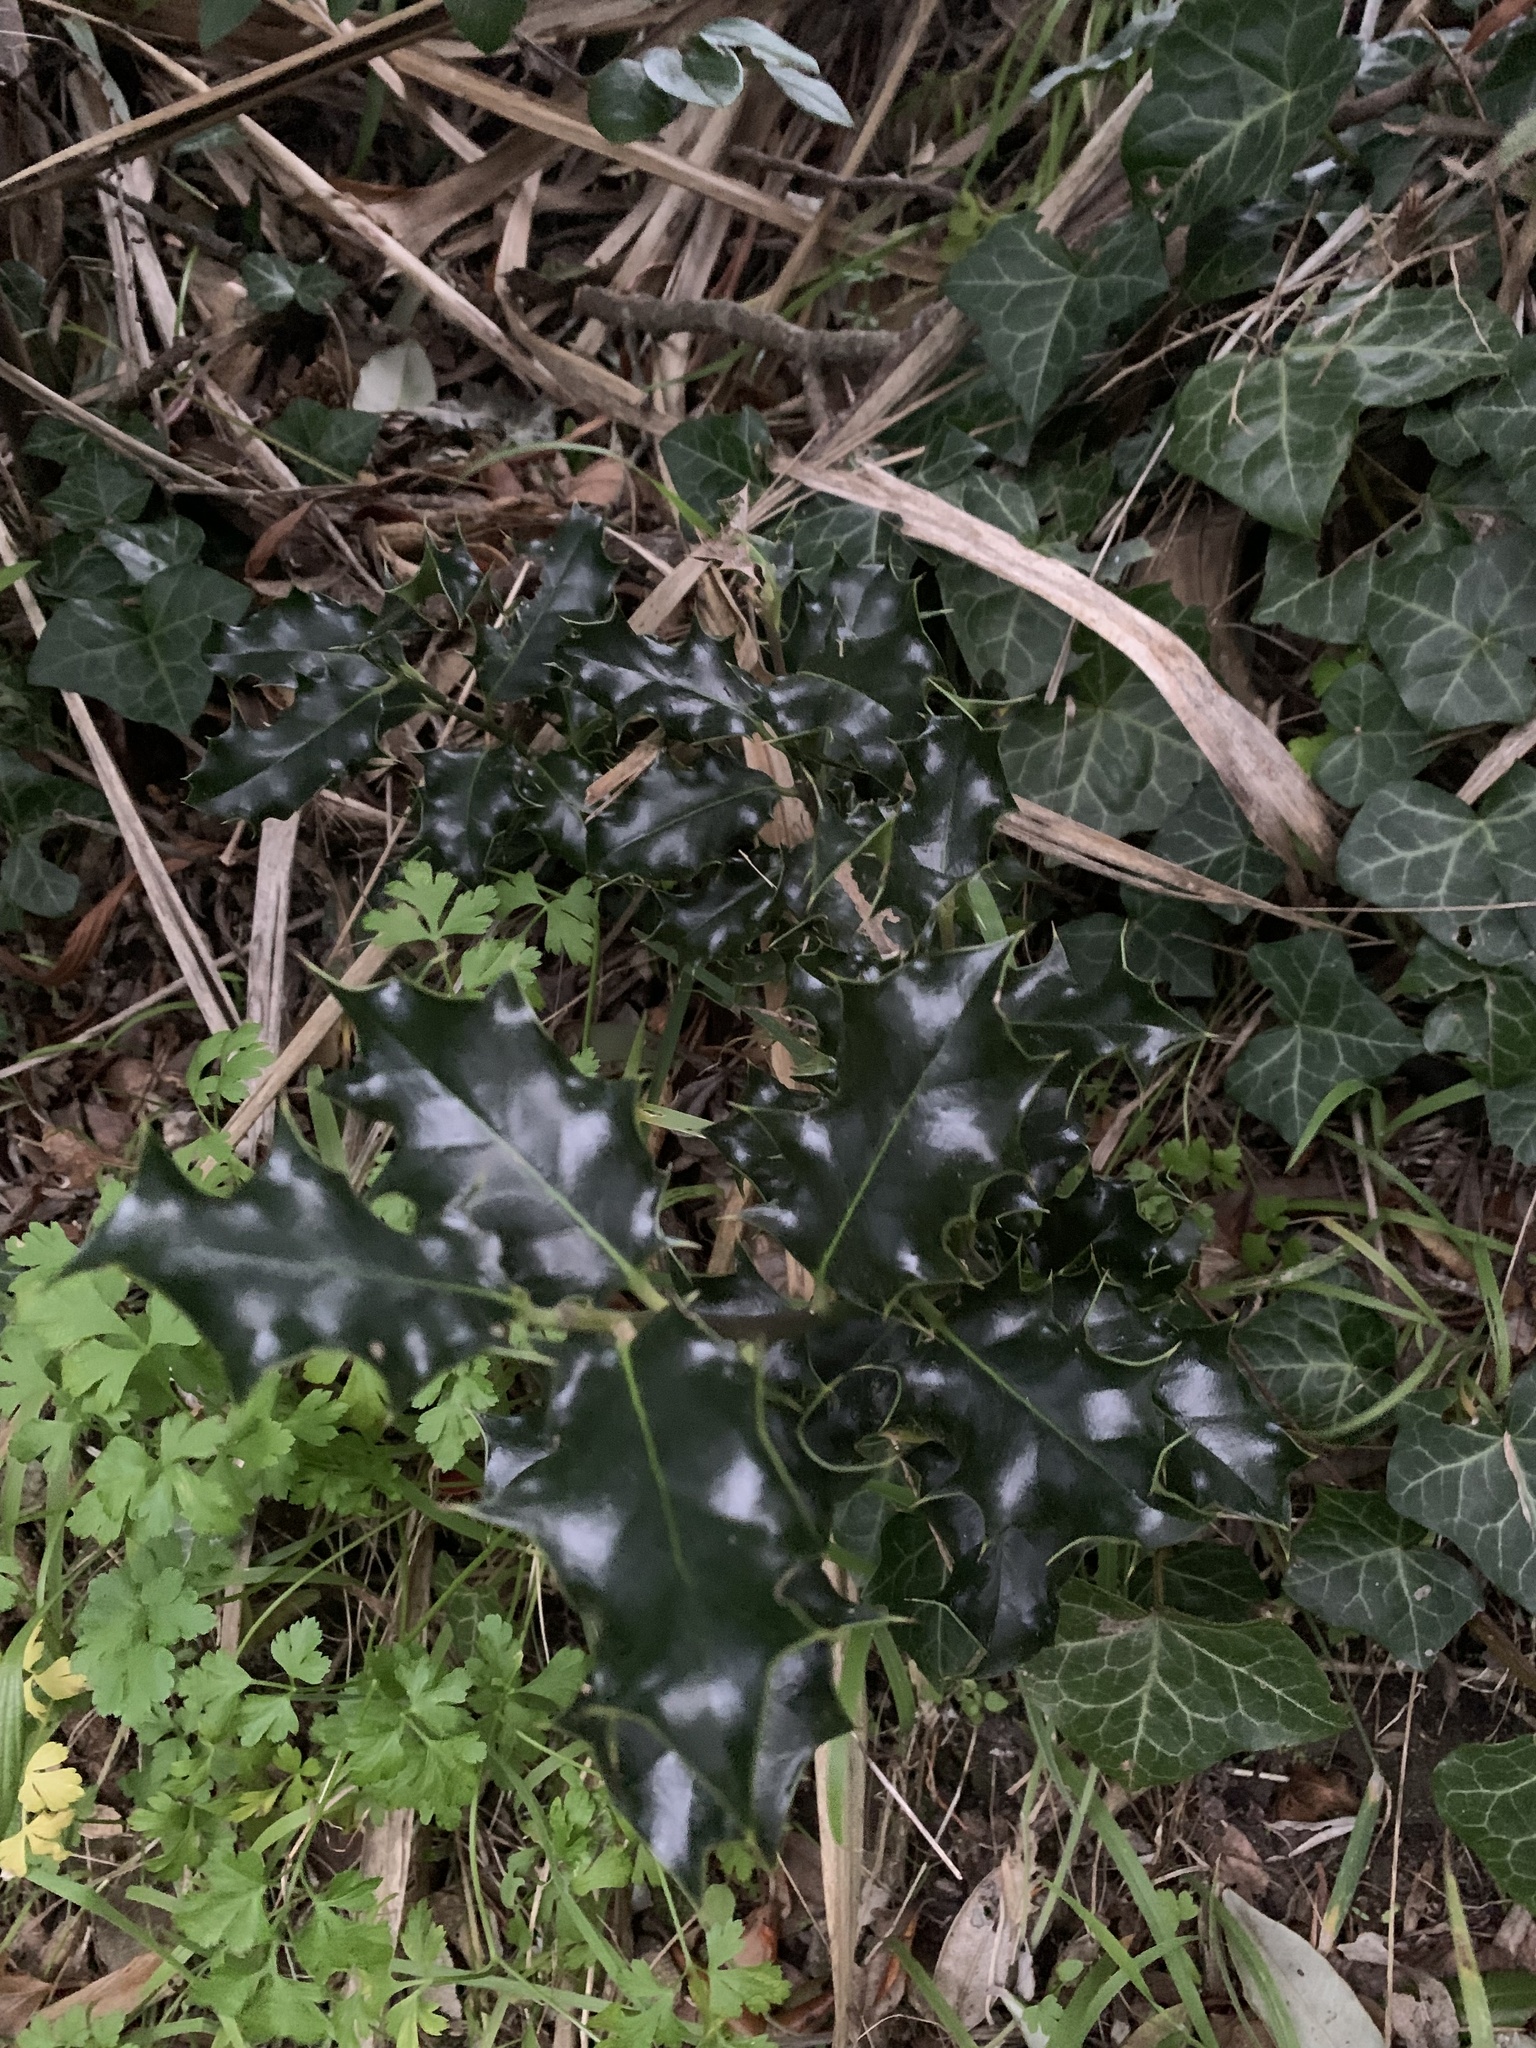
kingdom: Plantae
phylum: Tracheophyta
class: Magnoliopsida
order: Aquifoliales
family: Aquifoliaceae
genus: Ilex
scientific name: Ilex aquifolium
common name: English holly
